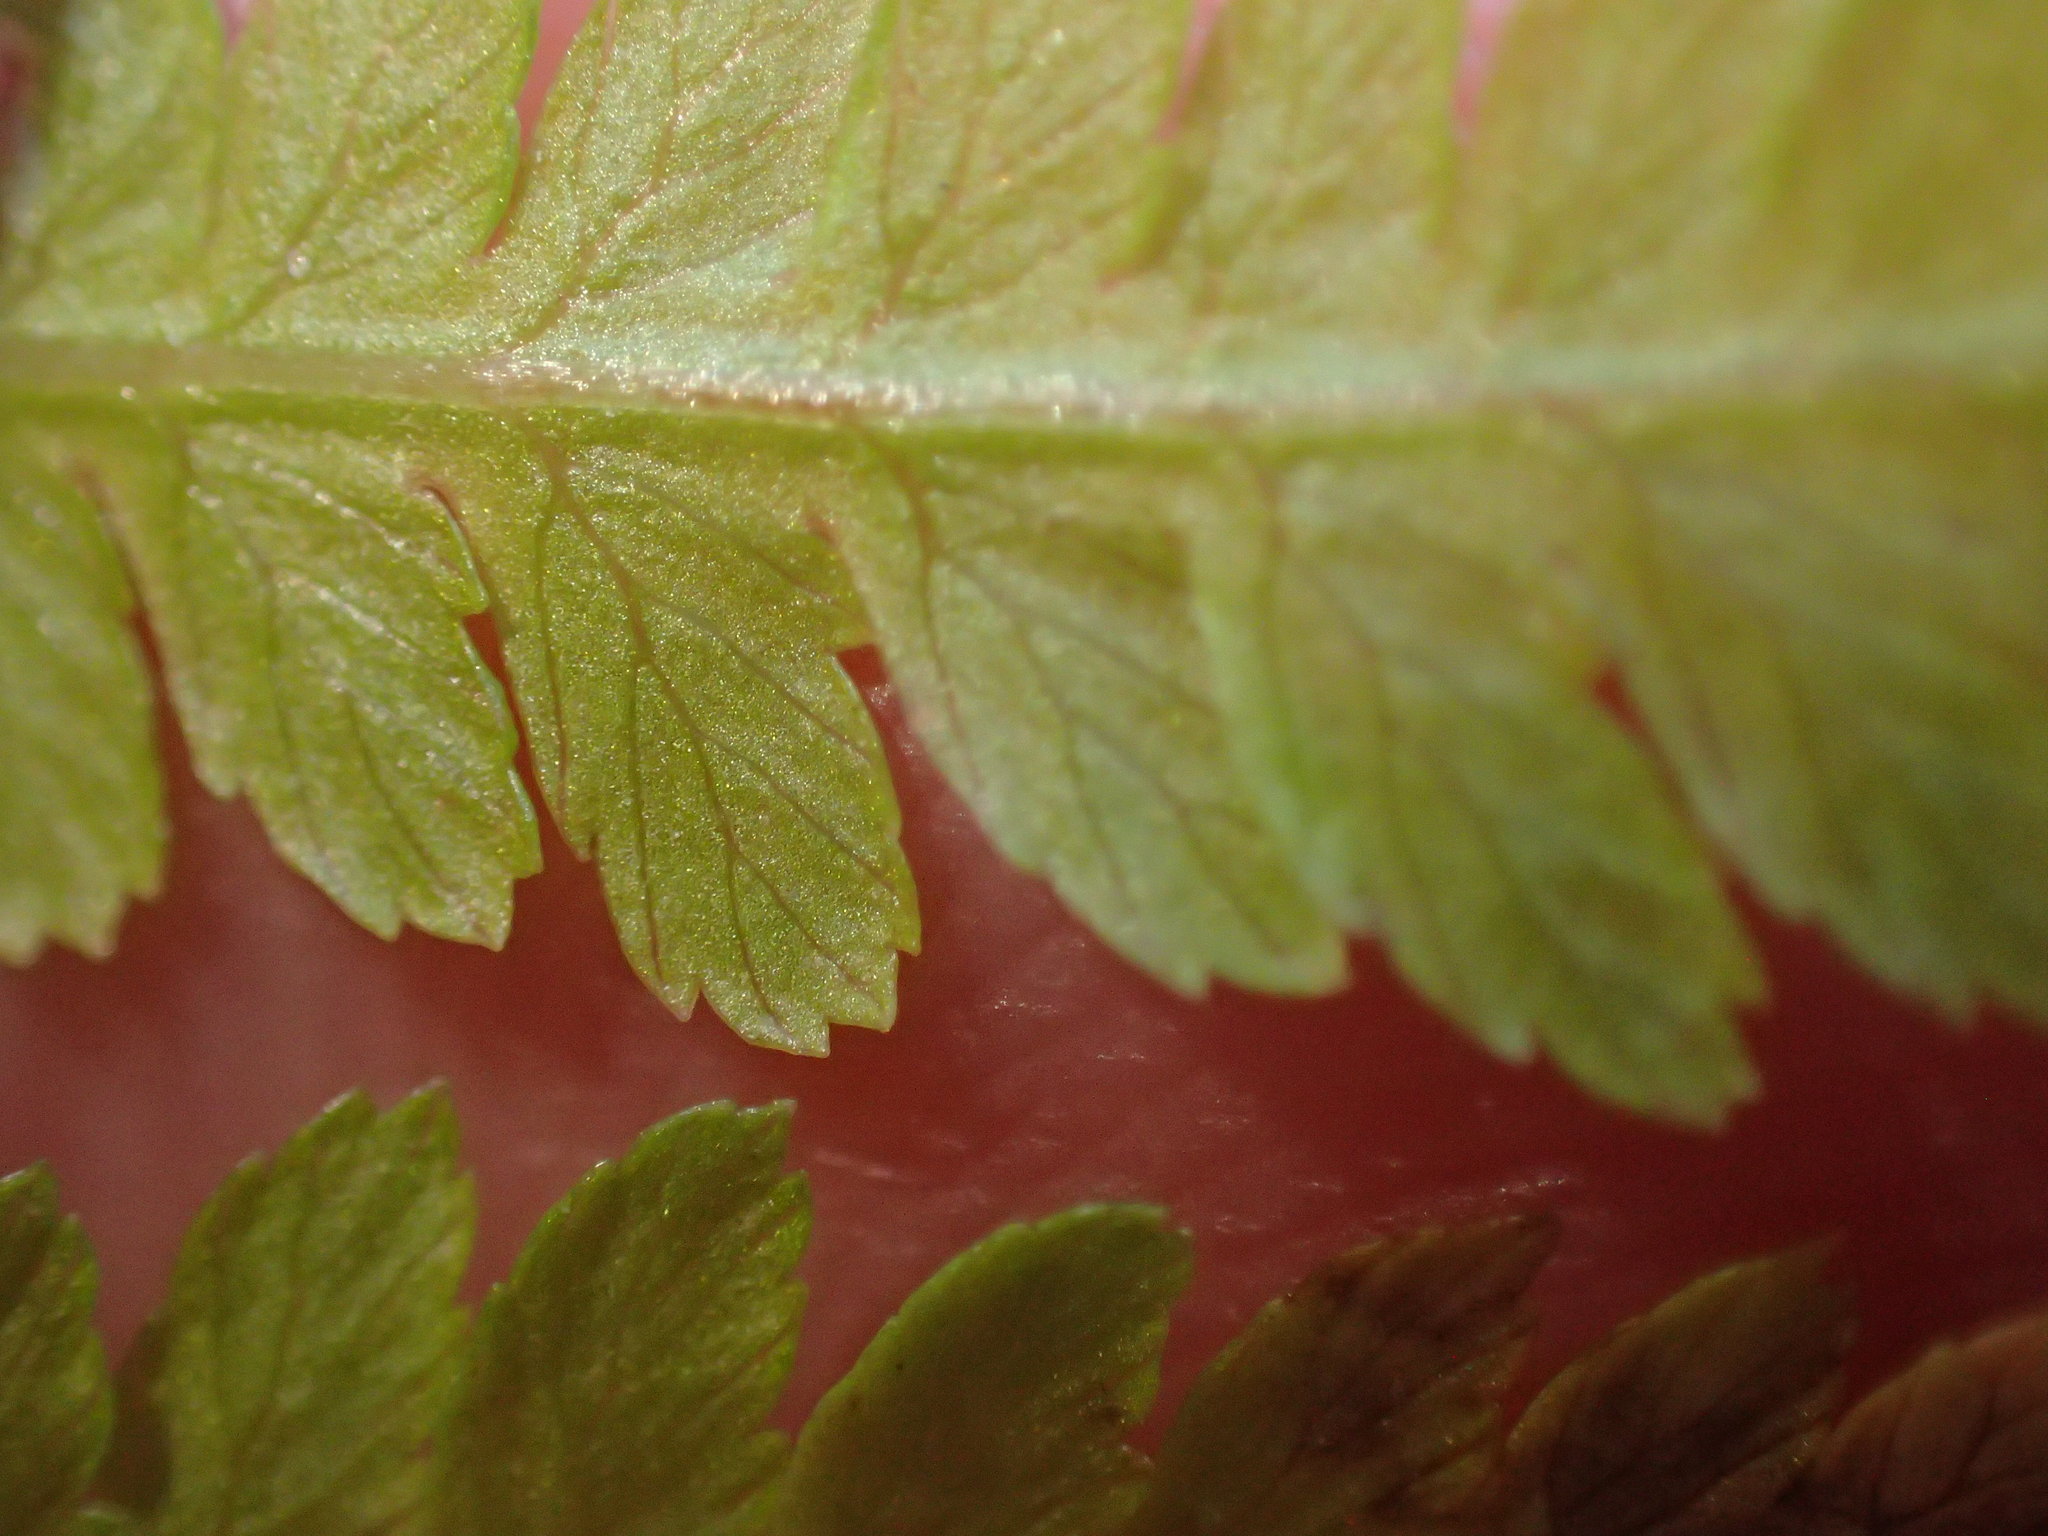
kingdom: Plantae
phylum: Tracheophyta
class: Polypodiopsida
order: Polypodiales
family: Athyriaceae
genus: Athyrium
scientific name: Athyrium angustum
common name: Northern lady fern
